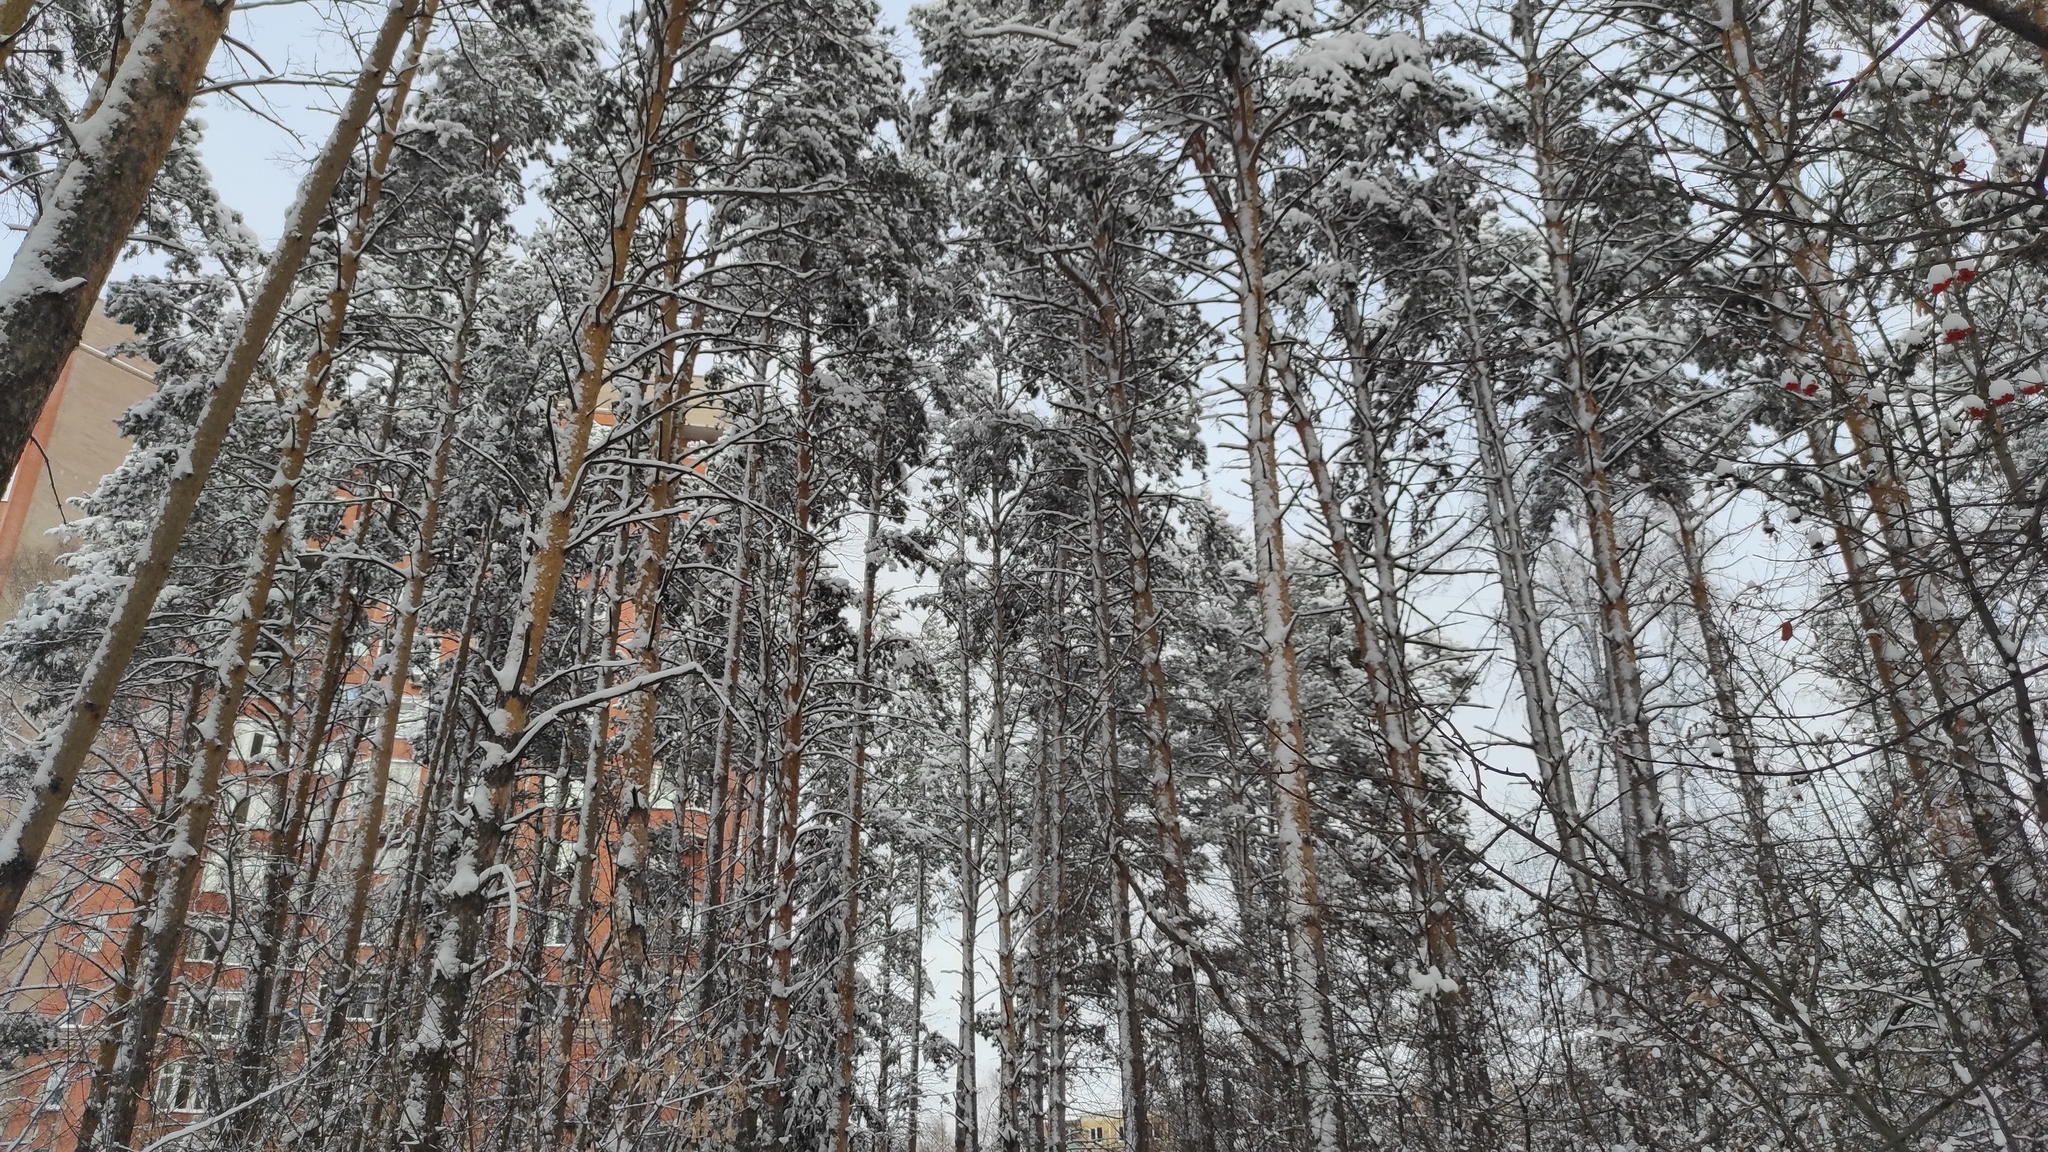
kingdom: Plantae
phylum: Tracheophyta
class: Pinopsida
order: Pinales
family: Pinaceae
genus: Pinus
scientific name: Pinus sylvestris
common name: Scots pine
